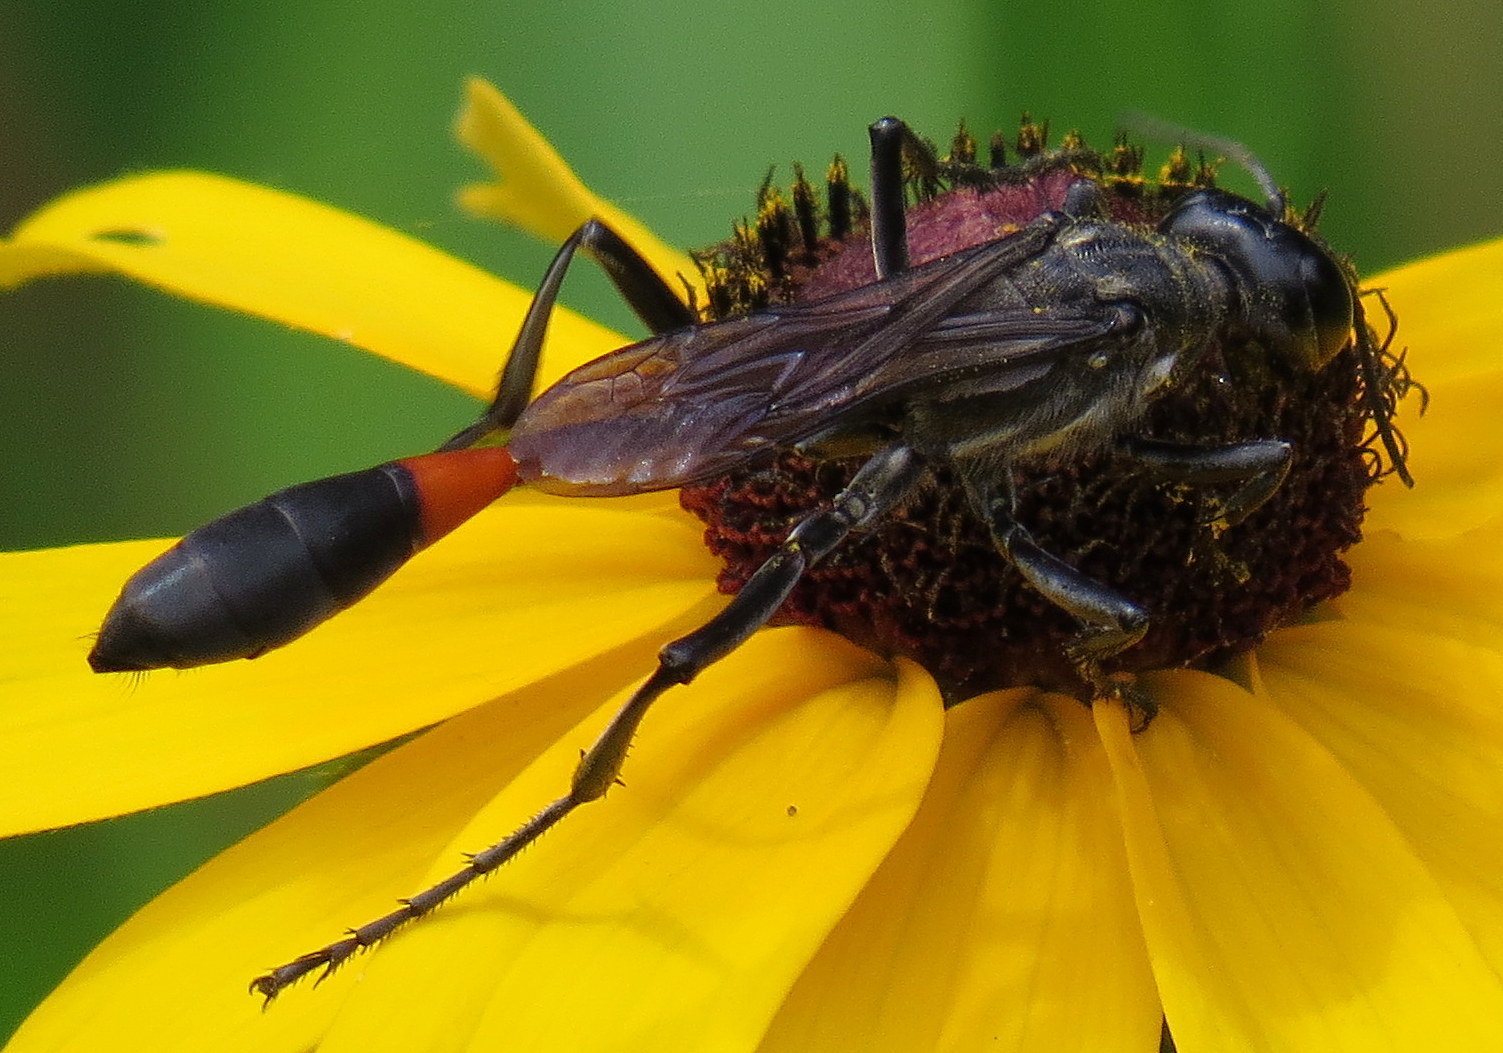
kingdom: Animalia
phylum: Arthropoda
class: Insecta
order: Hymenoptera
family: Sphecidae
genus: Ammophila
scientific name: Ammophila procera
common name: Common thread-waisted wasp
